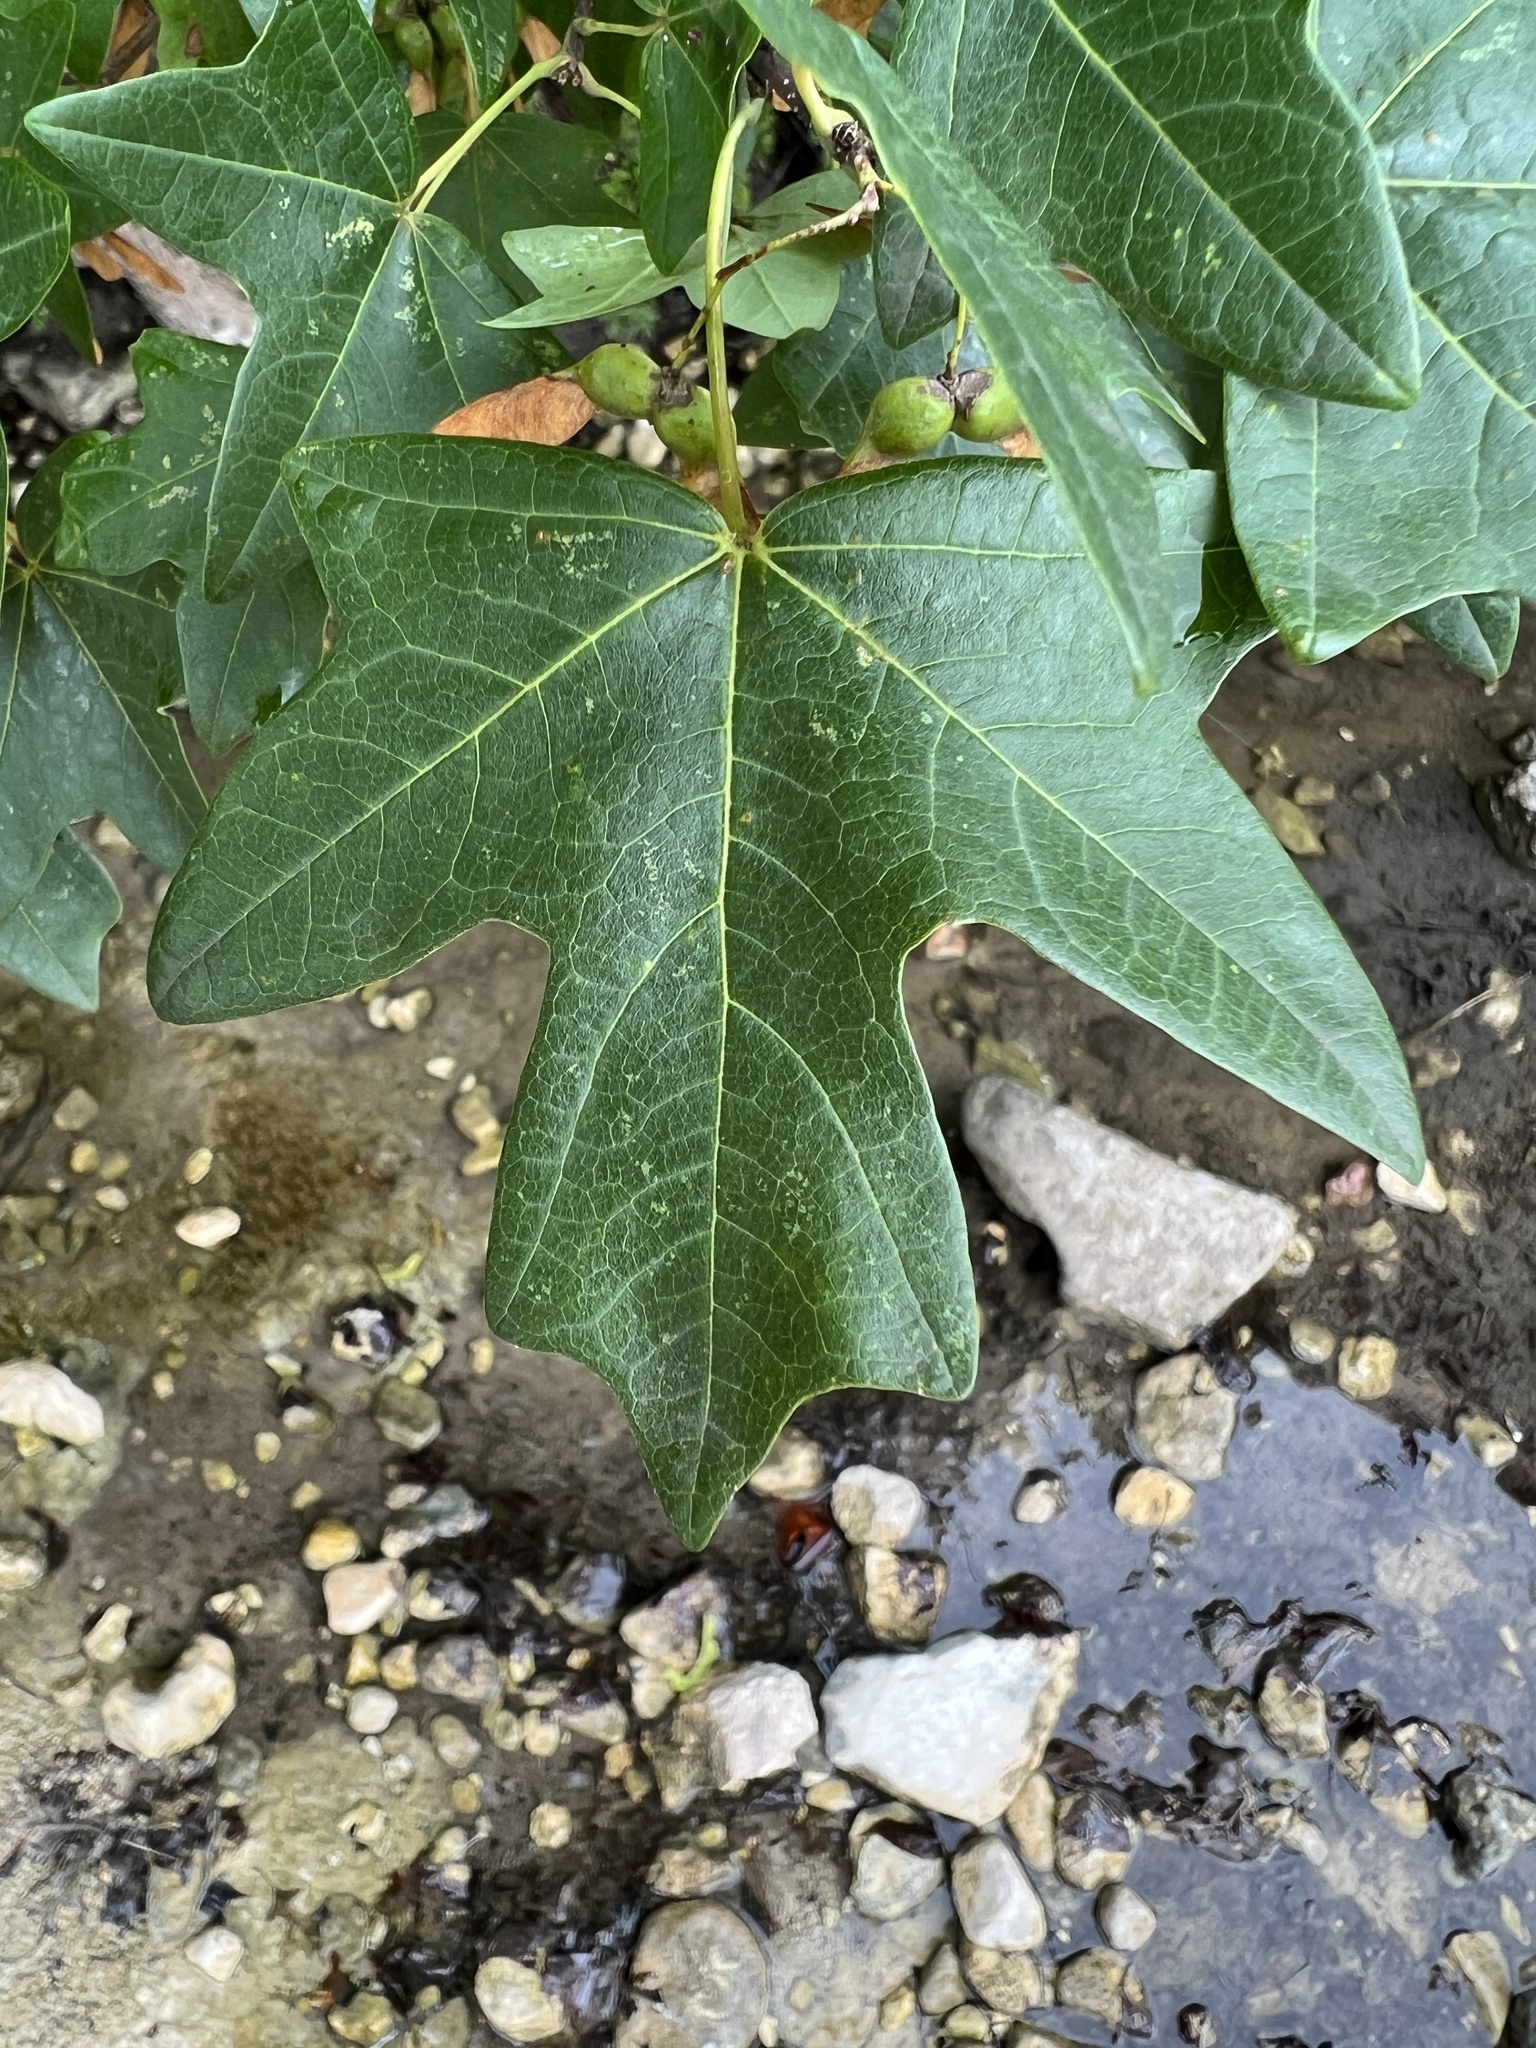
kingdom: Plantae
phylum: Tracheophyta
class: Magnoliopsida
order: Sapindales
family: Sapindaceae
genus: Acer
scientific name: Acer grandidentatum
